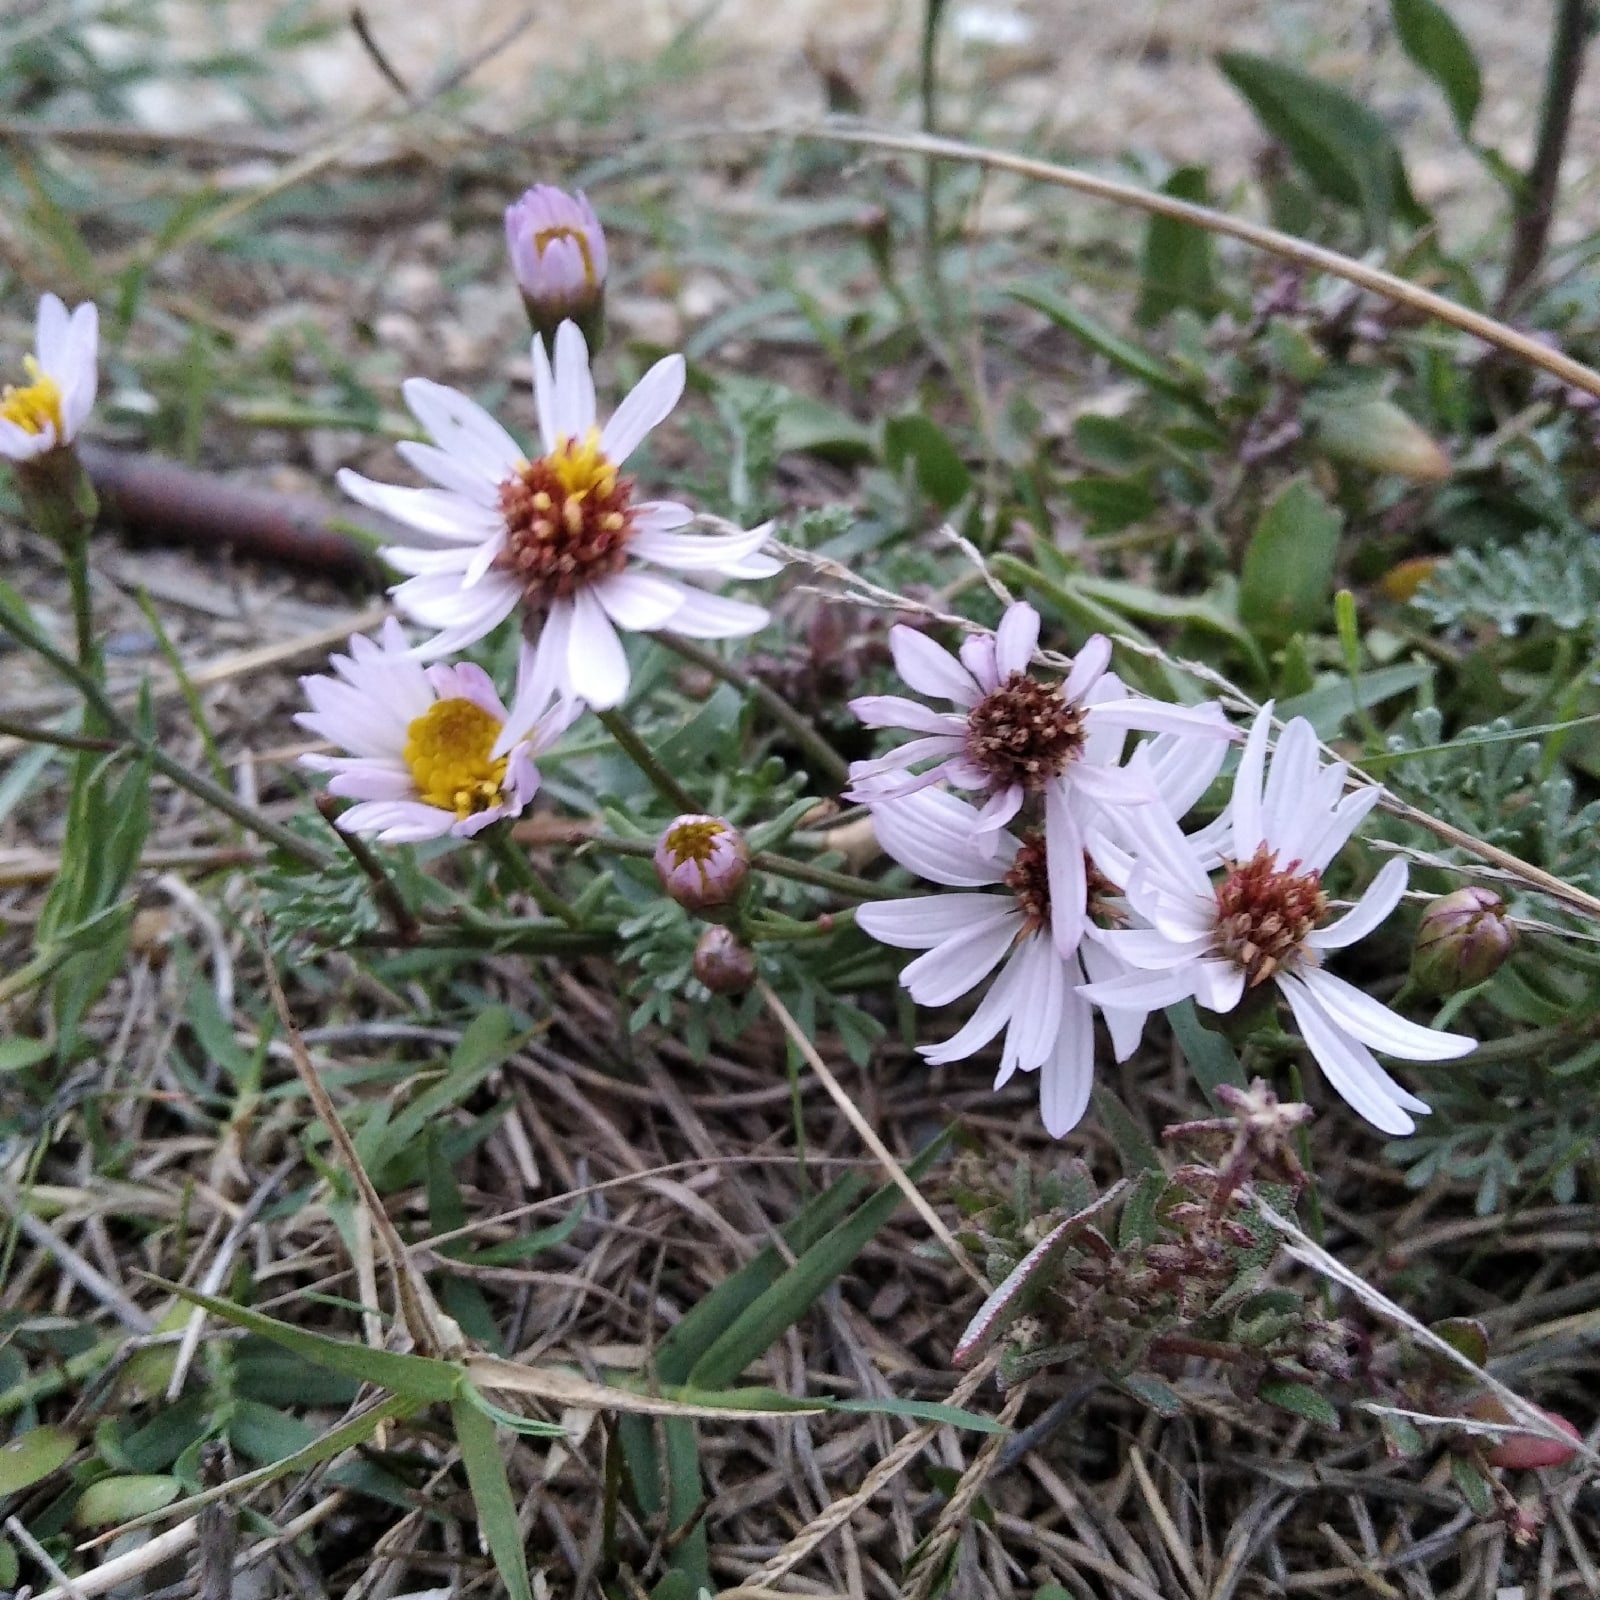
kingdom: Plantae
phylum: Tracheophyta
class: Magnoliopsida
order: Asterales
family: Asteraceae
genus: Tripolium
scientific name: Tripolium pannonicum
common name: Sea aster
